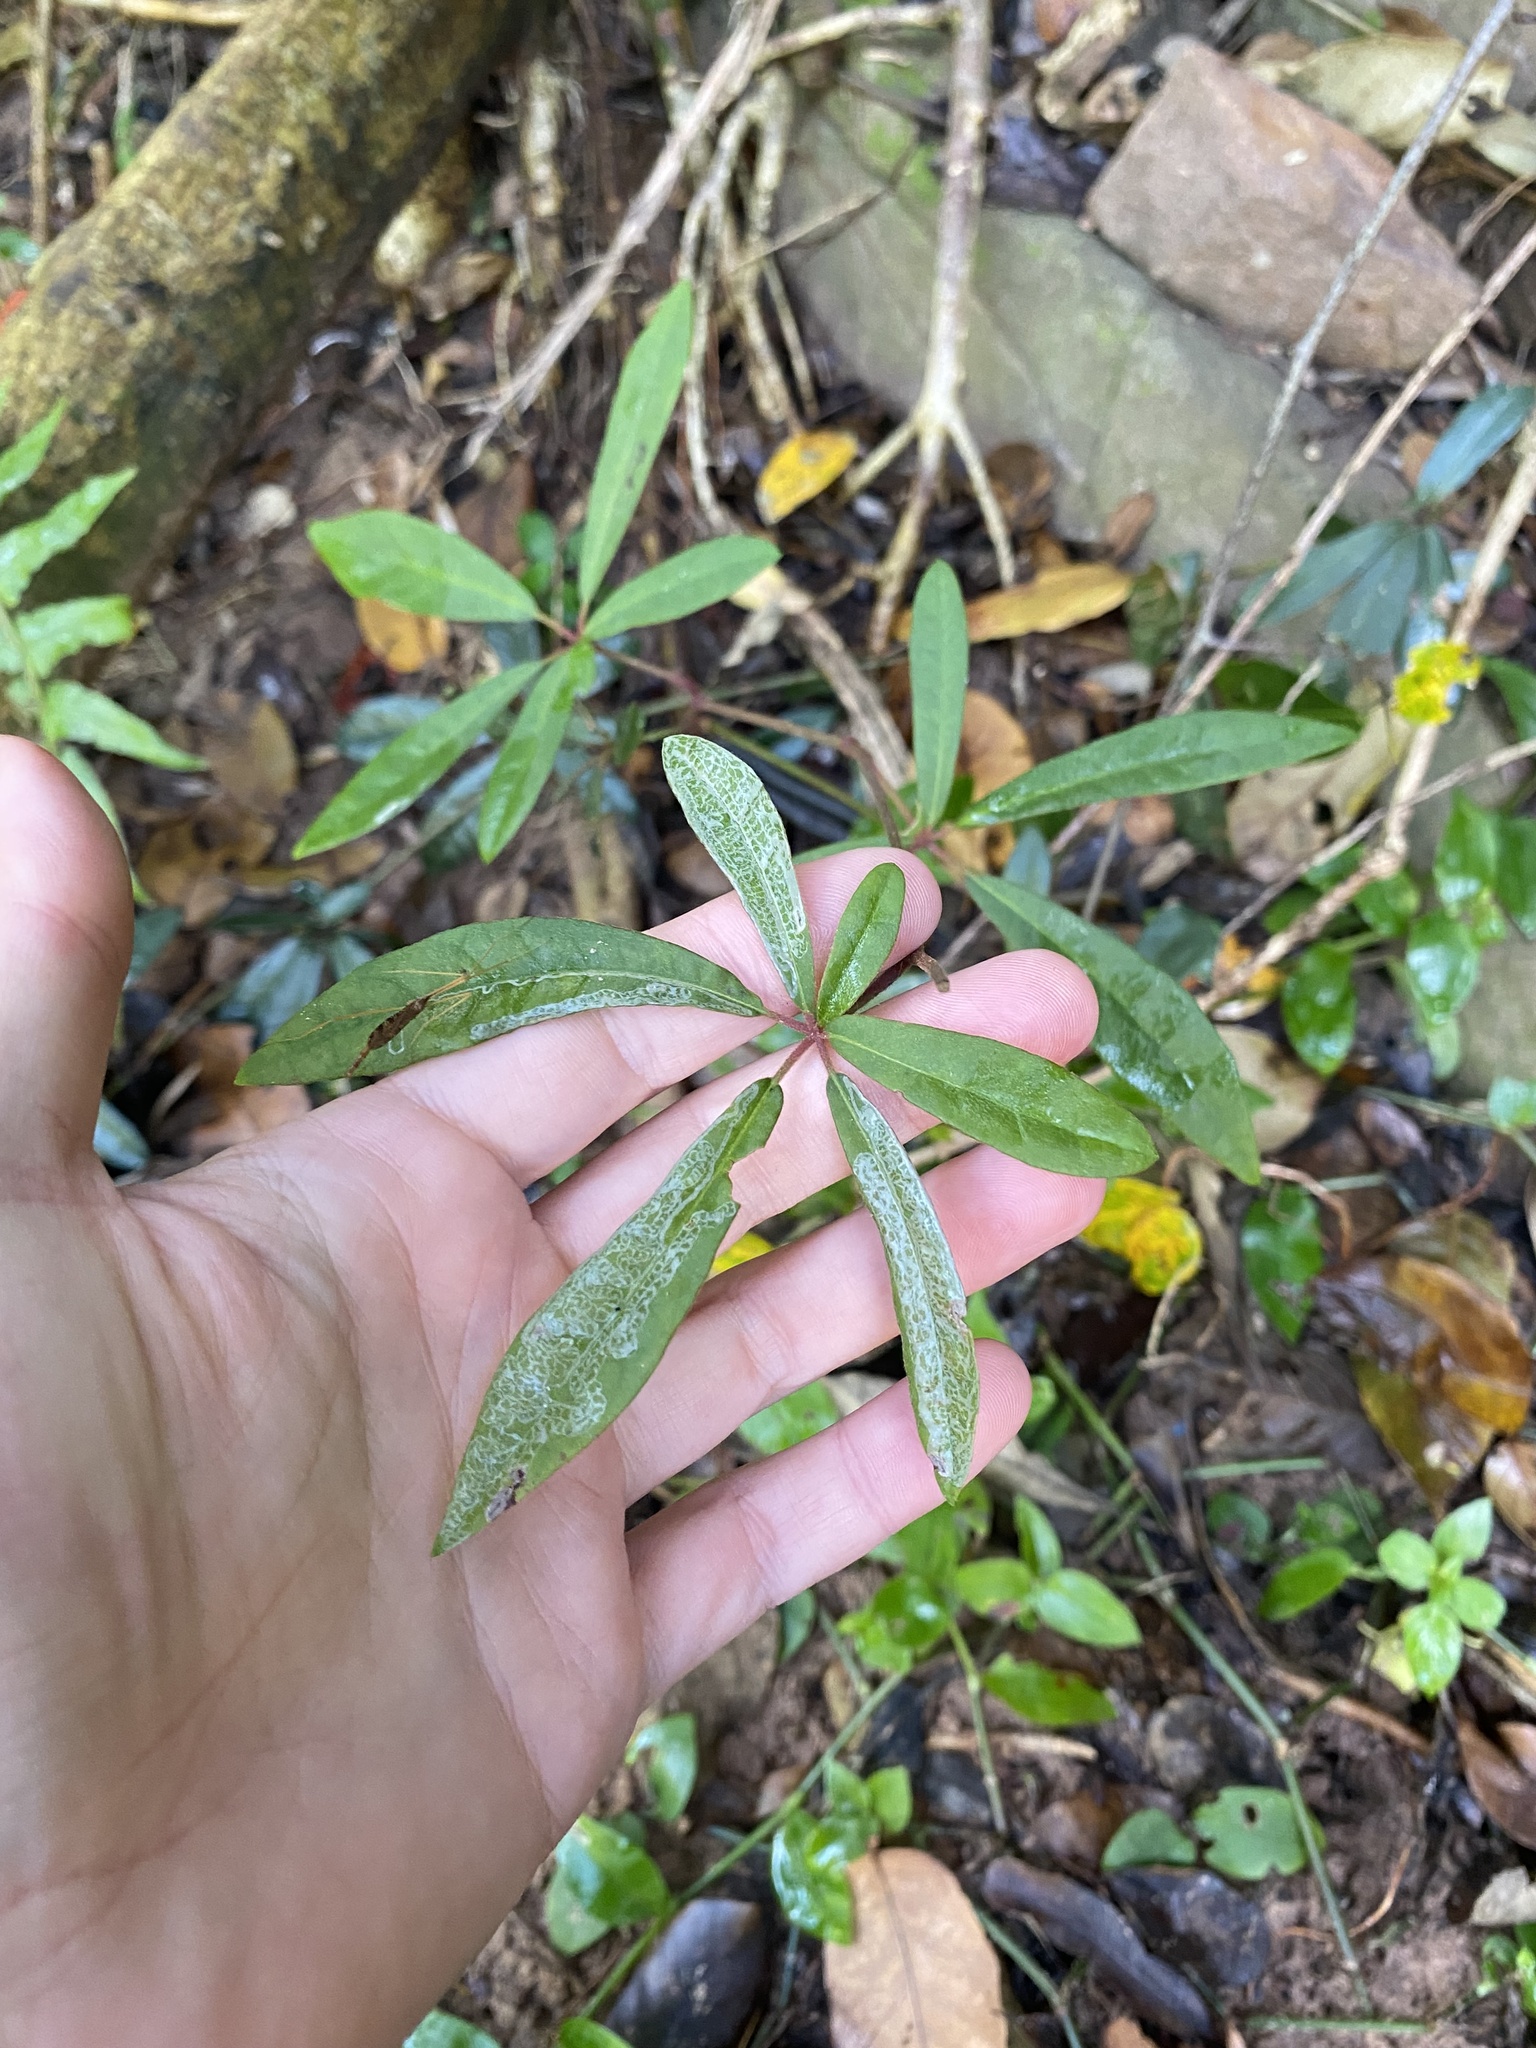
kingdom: Plantae
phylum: Tracheophyta
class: Magnoliopsida
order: Vitales
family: Vitaceae
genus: Rhoicissus
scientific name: Rhoicissus digitata
